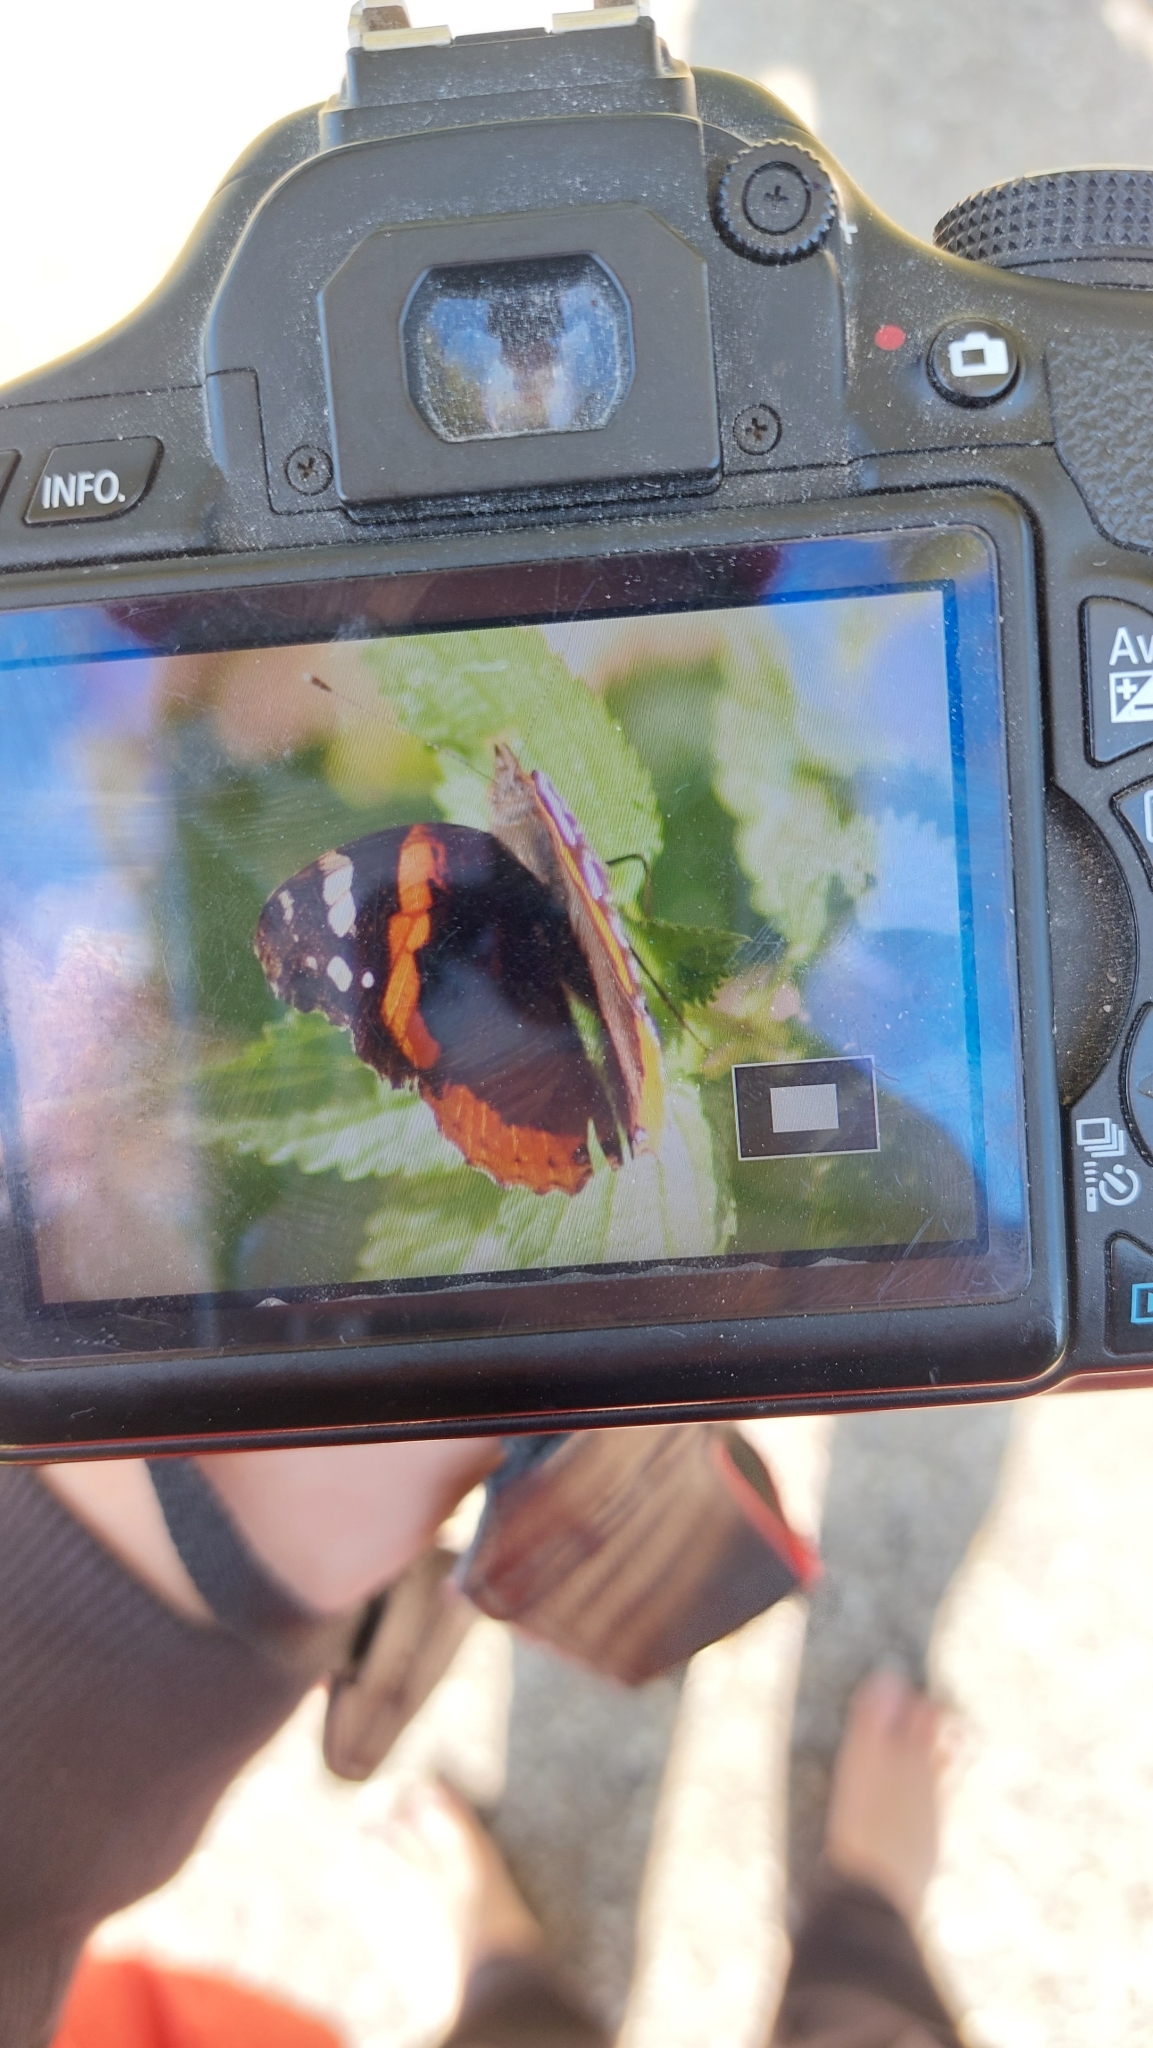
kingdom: Animalia
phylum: Arthropoda
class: Insecta
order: Lepidoptera
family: Nymphalidae
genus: Vanessa
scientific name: Vanessa atalanta
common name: Red admiral
